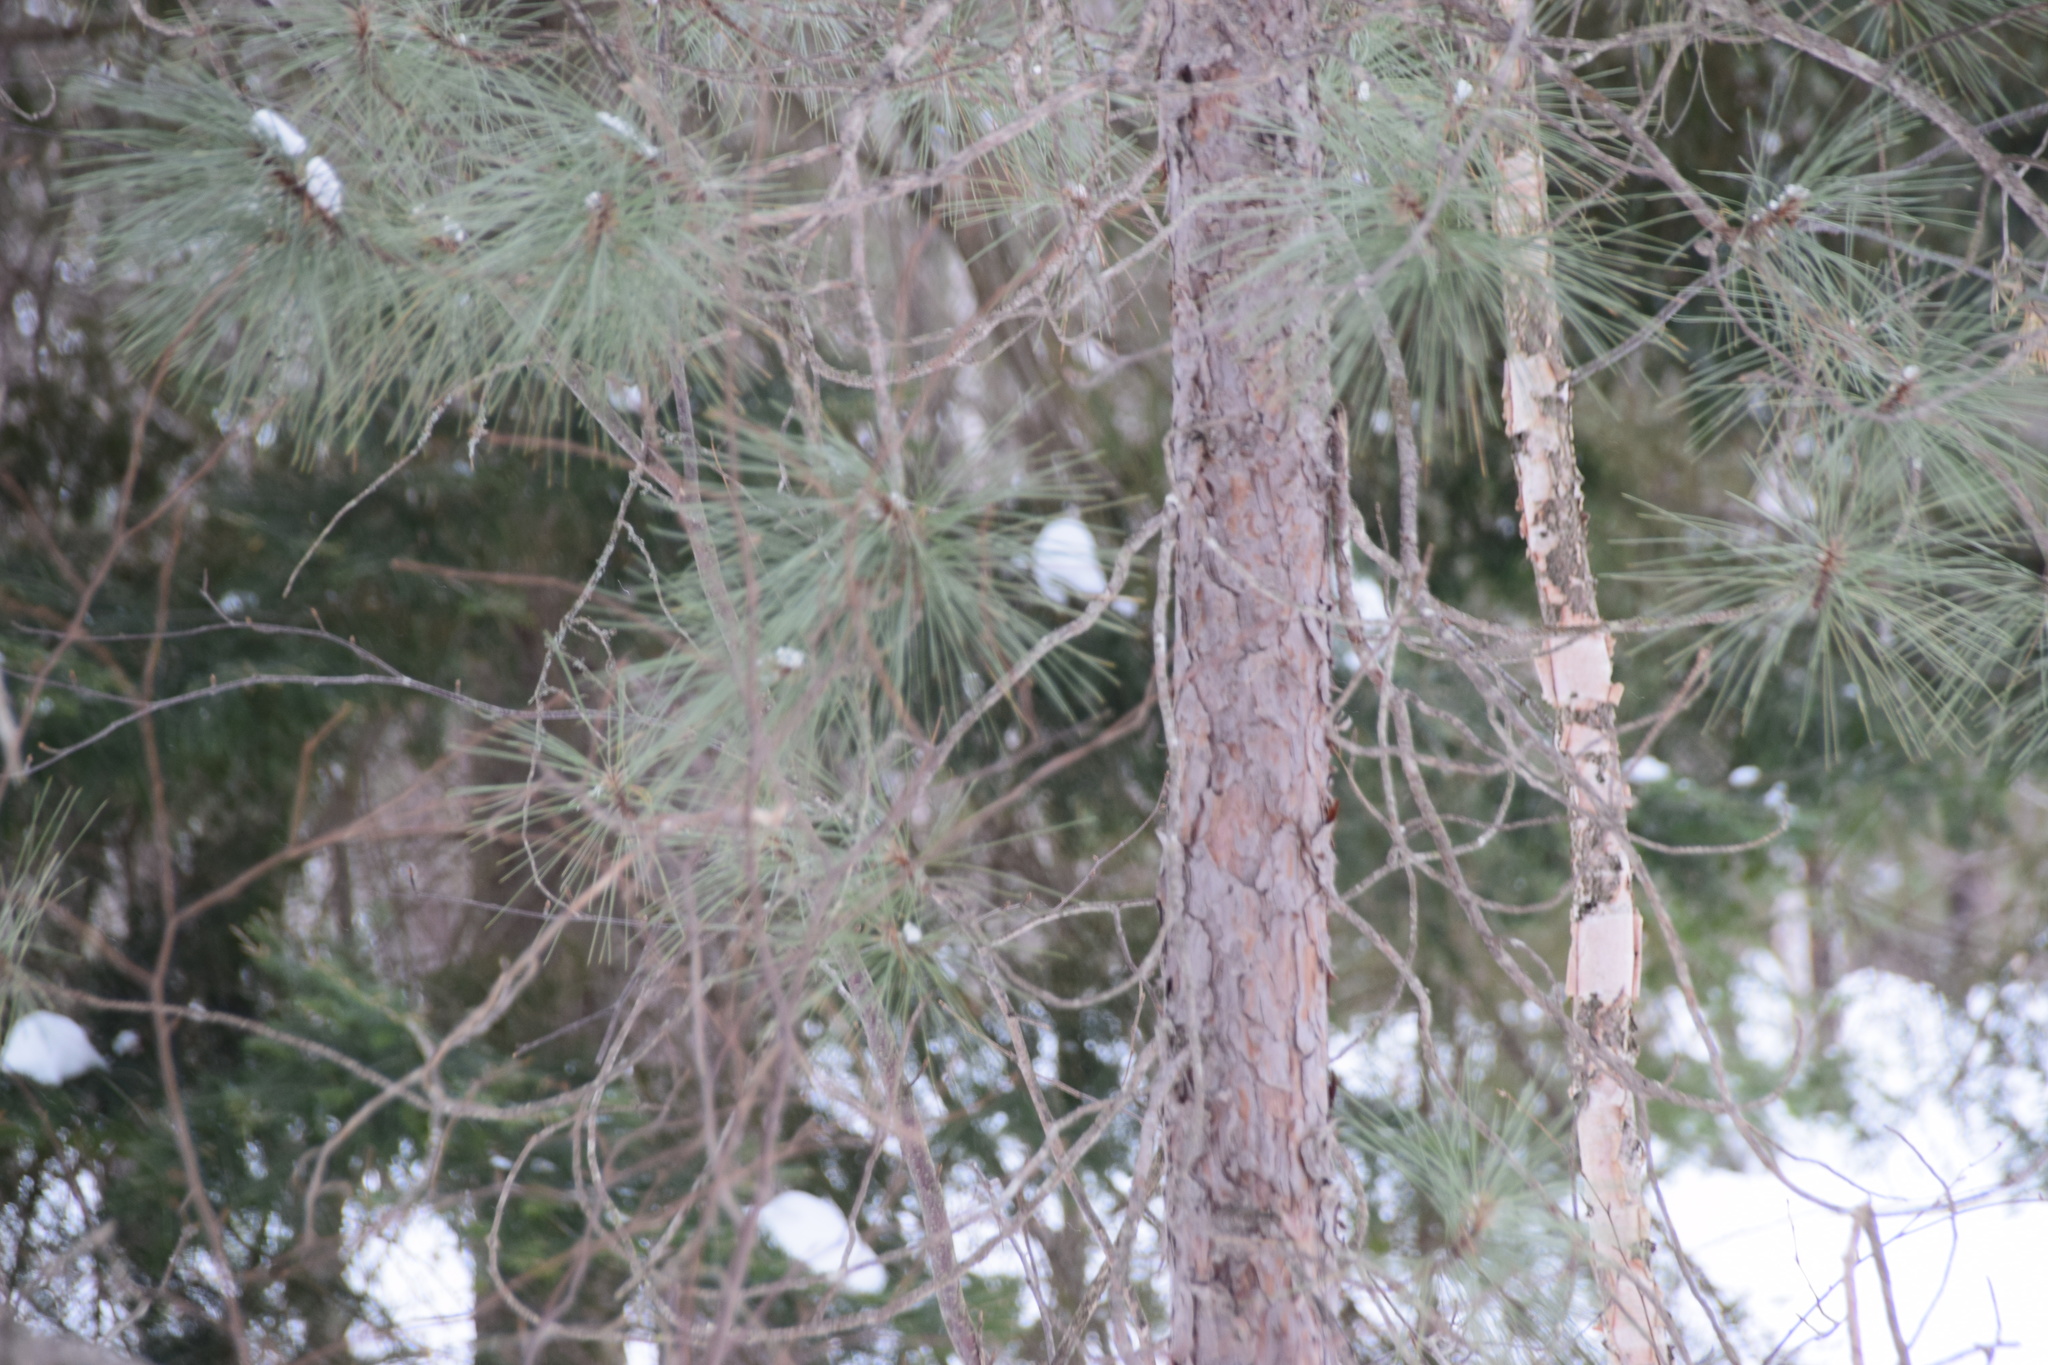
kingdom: Plantae
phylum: Tracheophyta
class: Pinopsida
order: Pinales
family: Pinaceae
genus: Pinus
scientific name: Pinus resinosa
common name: Norway pine
